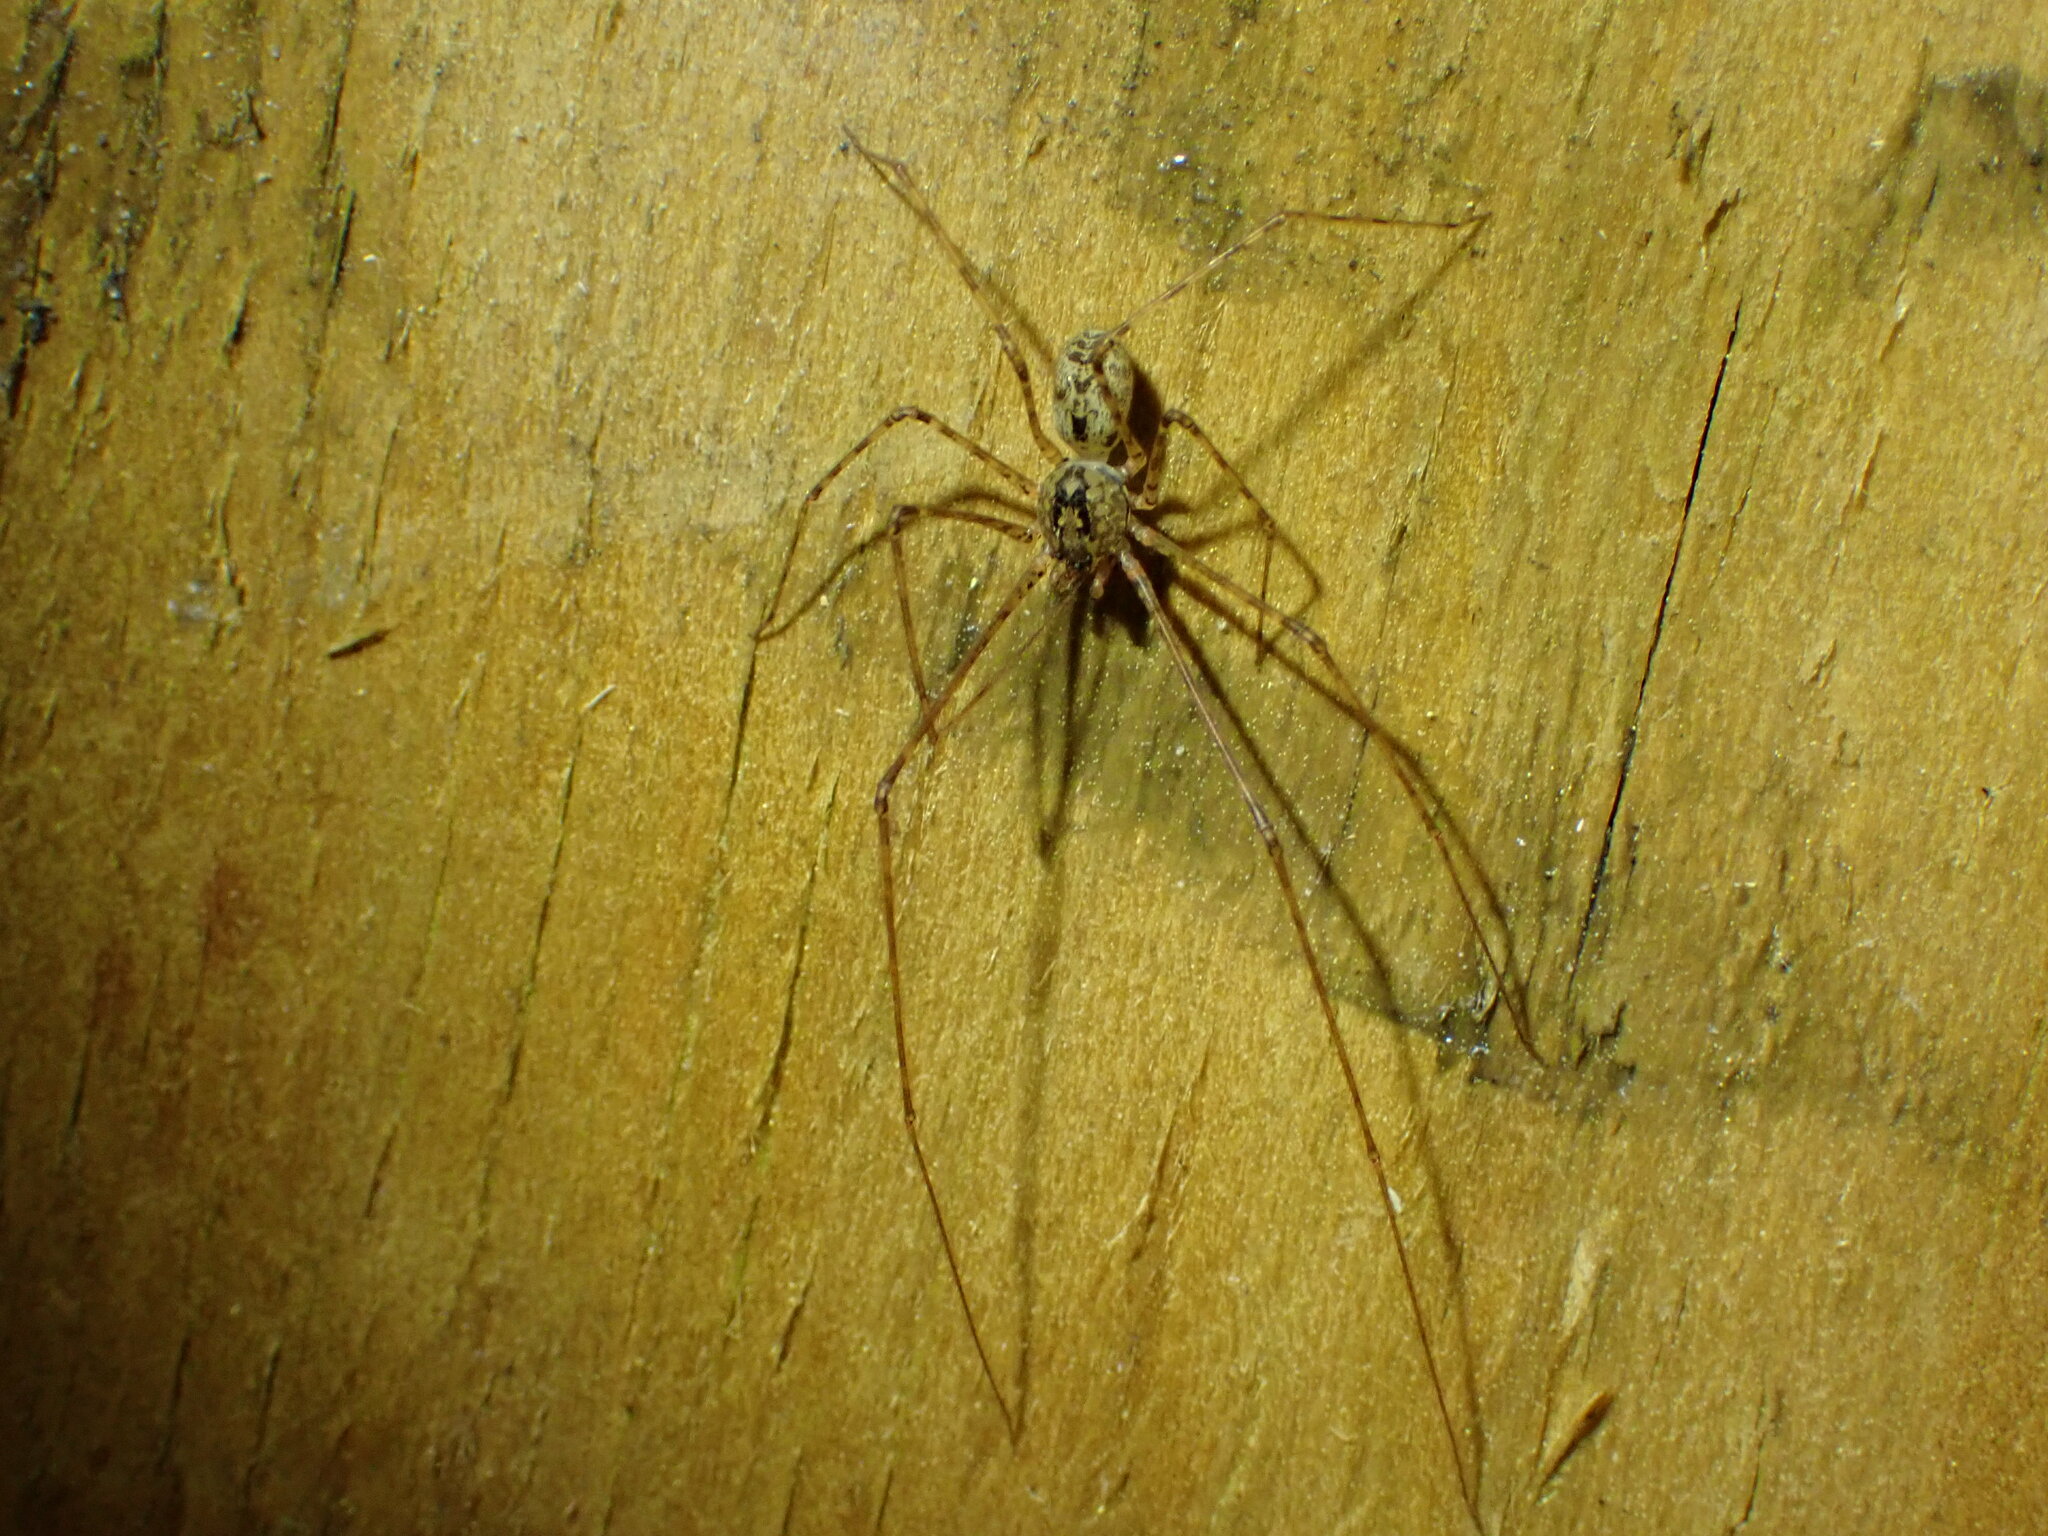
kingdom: Animalia
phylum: Arthropoda
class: Arachnida
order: Araneae
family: Scytodidae
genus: Scytodes
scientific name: Scytodes globula
